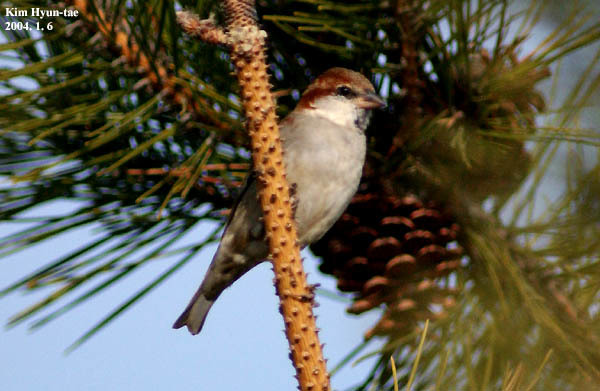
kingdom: Animalia
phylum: Chordata
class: Aves
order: Passeriformes
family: Passeridae
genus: Passer
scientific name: Passer cinnamomeus
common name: Russet sparrow
